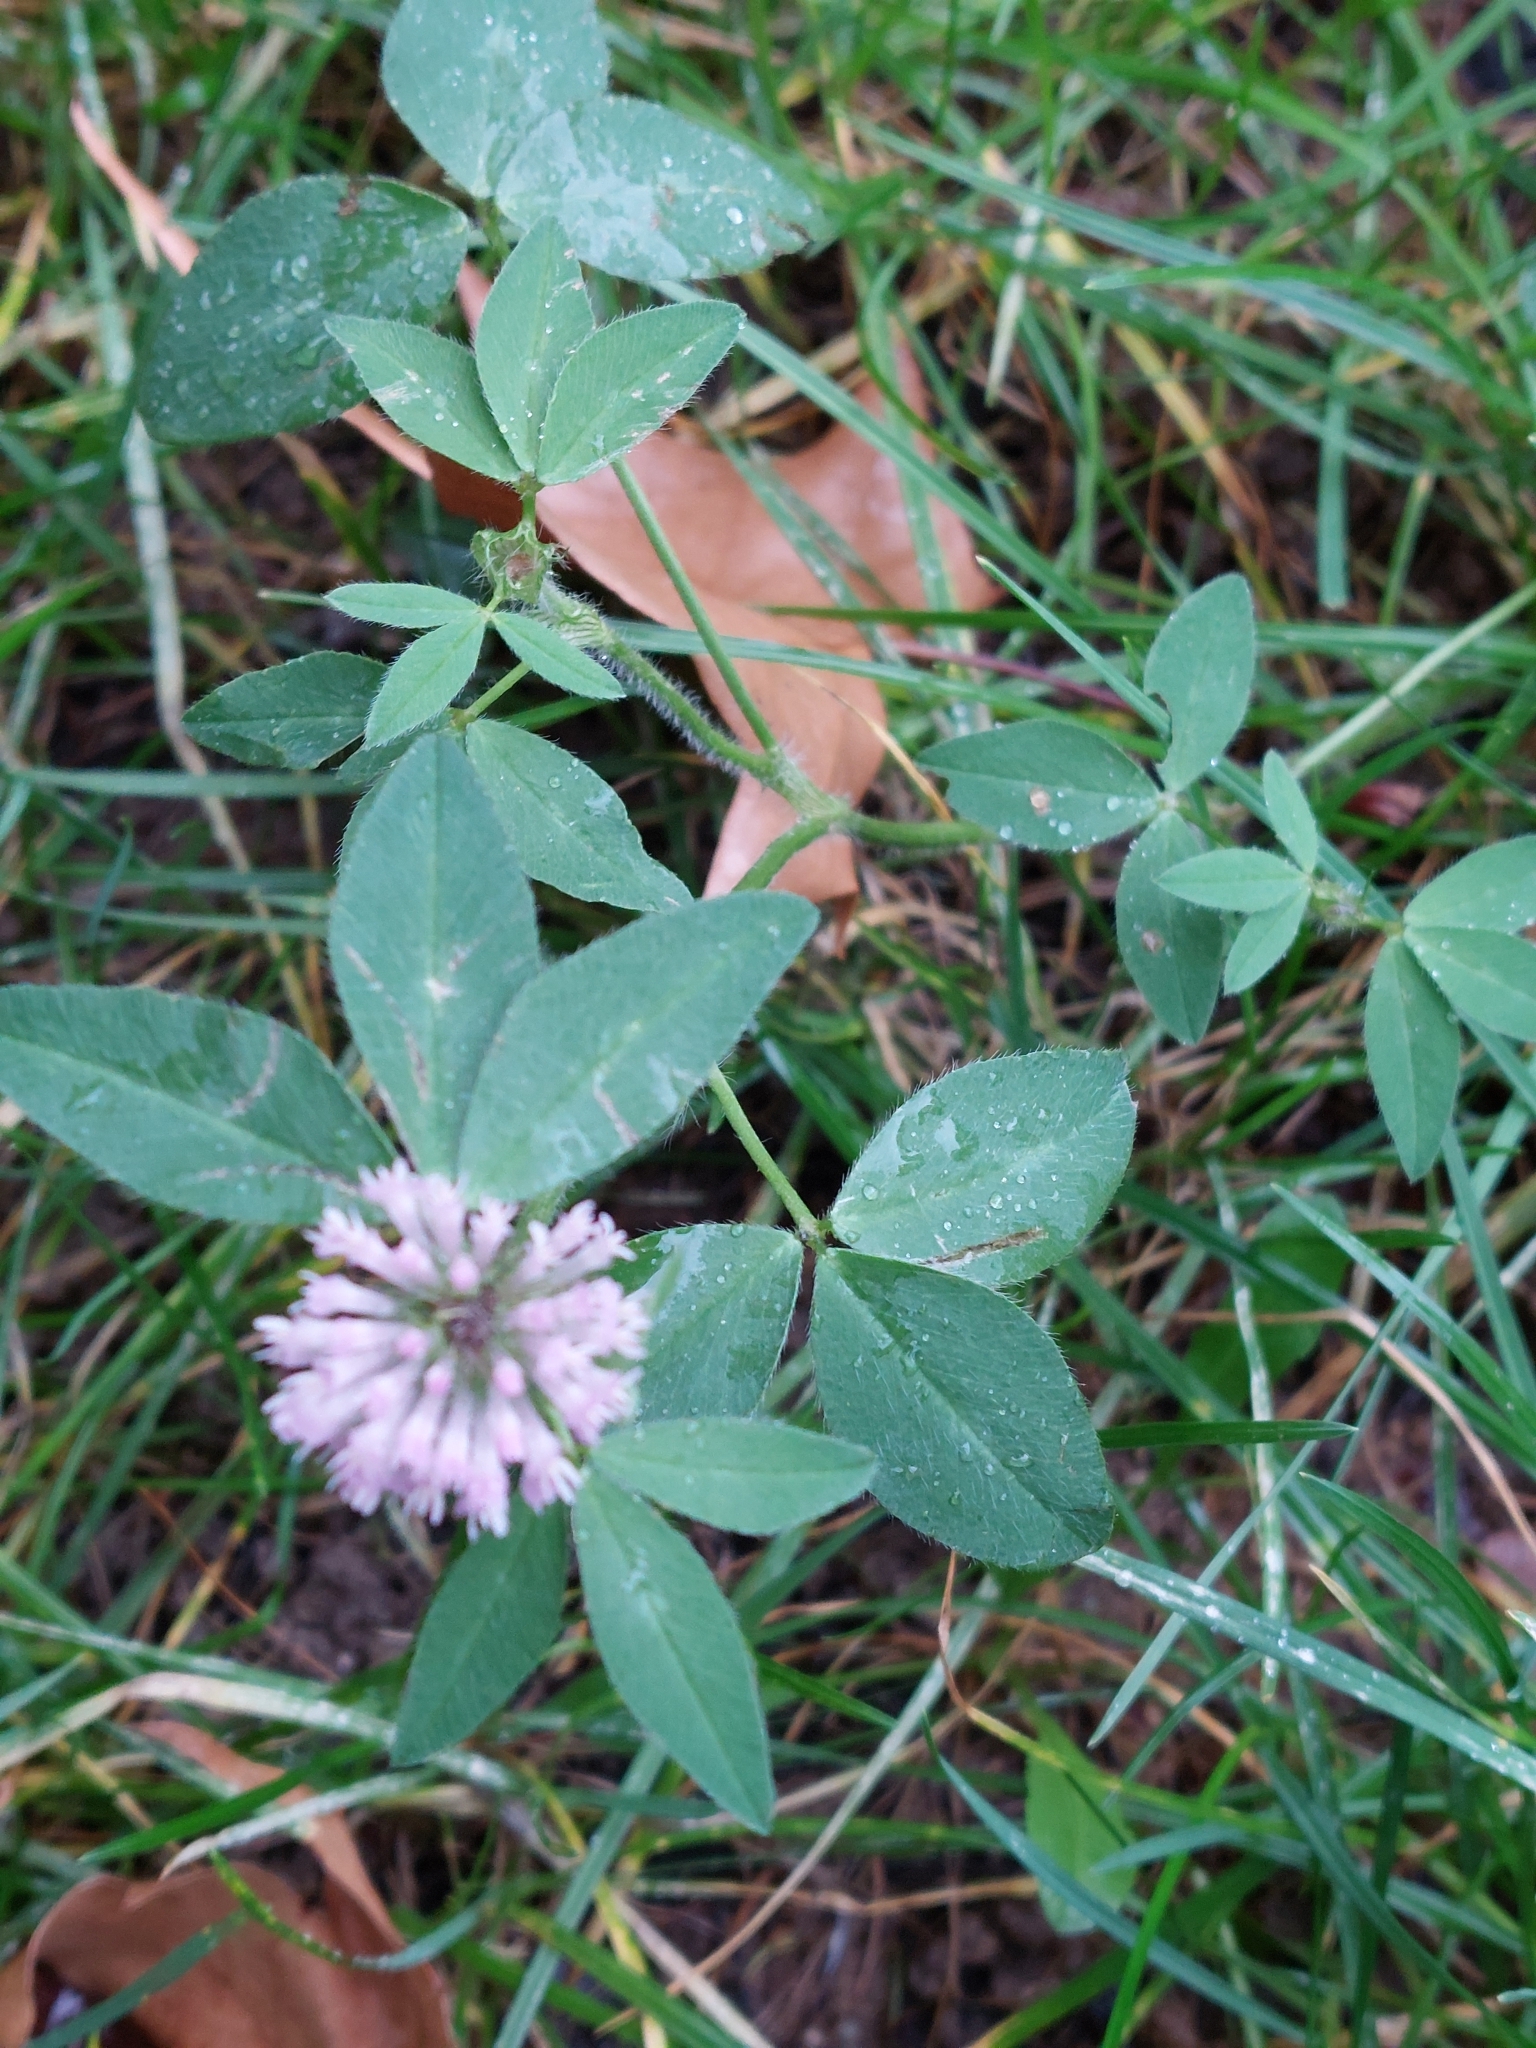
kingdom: Plantae
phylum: Tracheophyta
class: Magnoliopsida
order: Fabales
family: Fabaceae
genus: Trifolium
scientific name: Trifolium pratense
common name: Red clover
